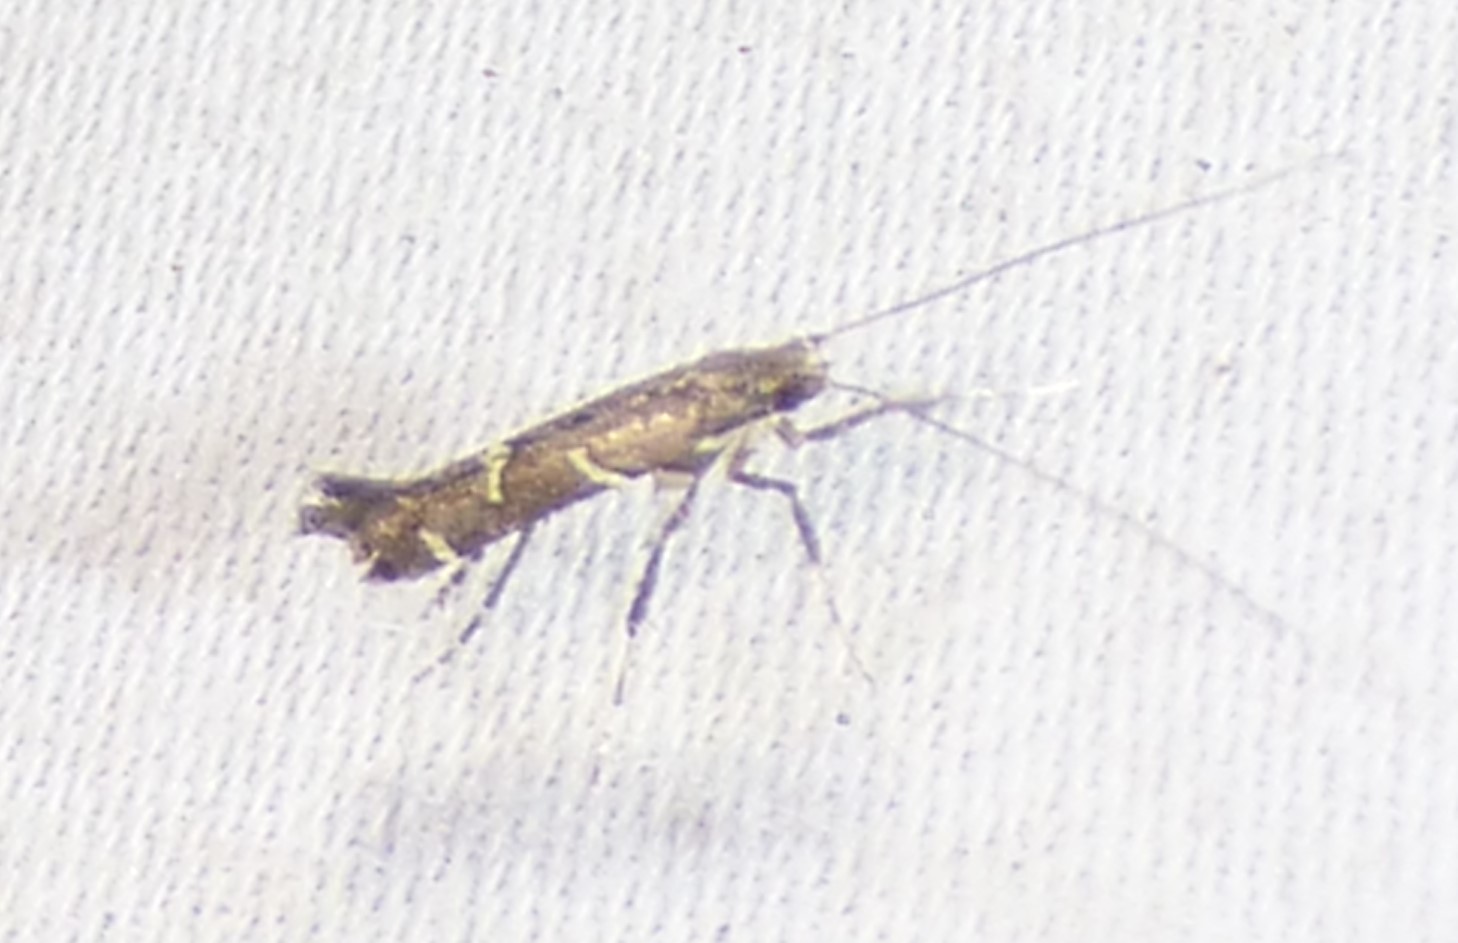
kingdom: Animalia
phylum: Arthropoda
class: Insecta
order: Lepidoptera
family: Gracillariidae
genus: Caloptilia
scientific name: Caloptilia triadicae
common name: Tallow leaf roller
